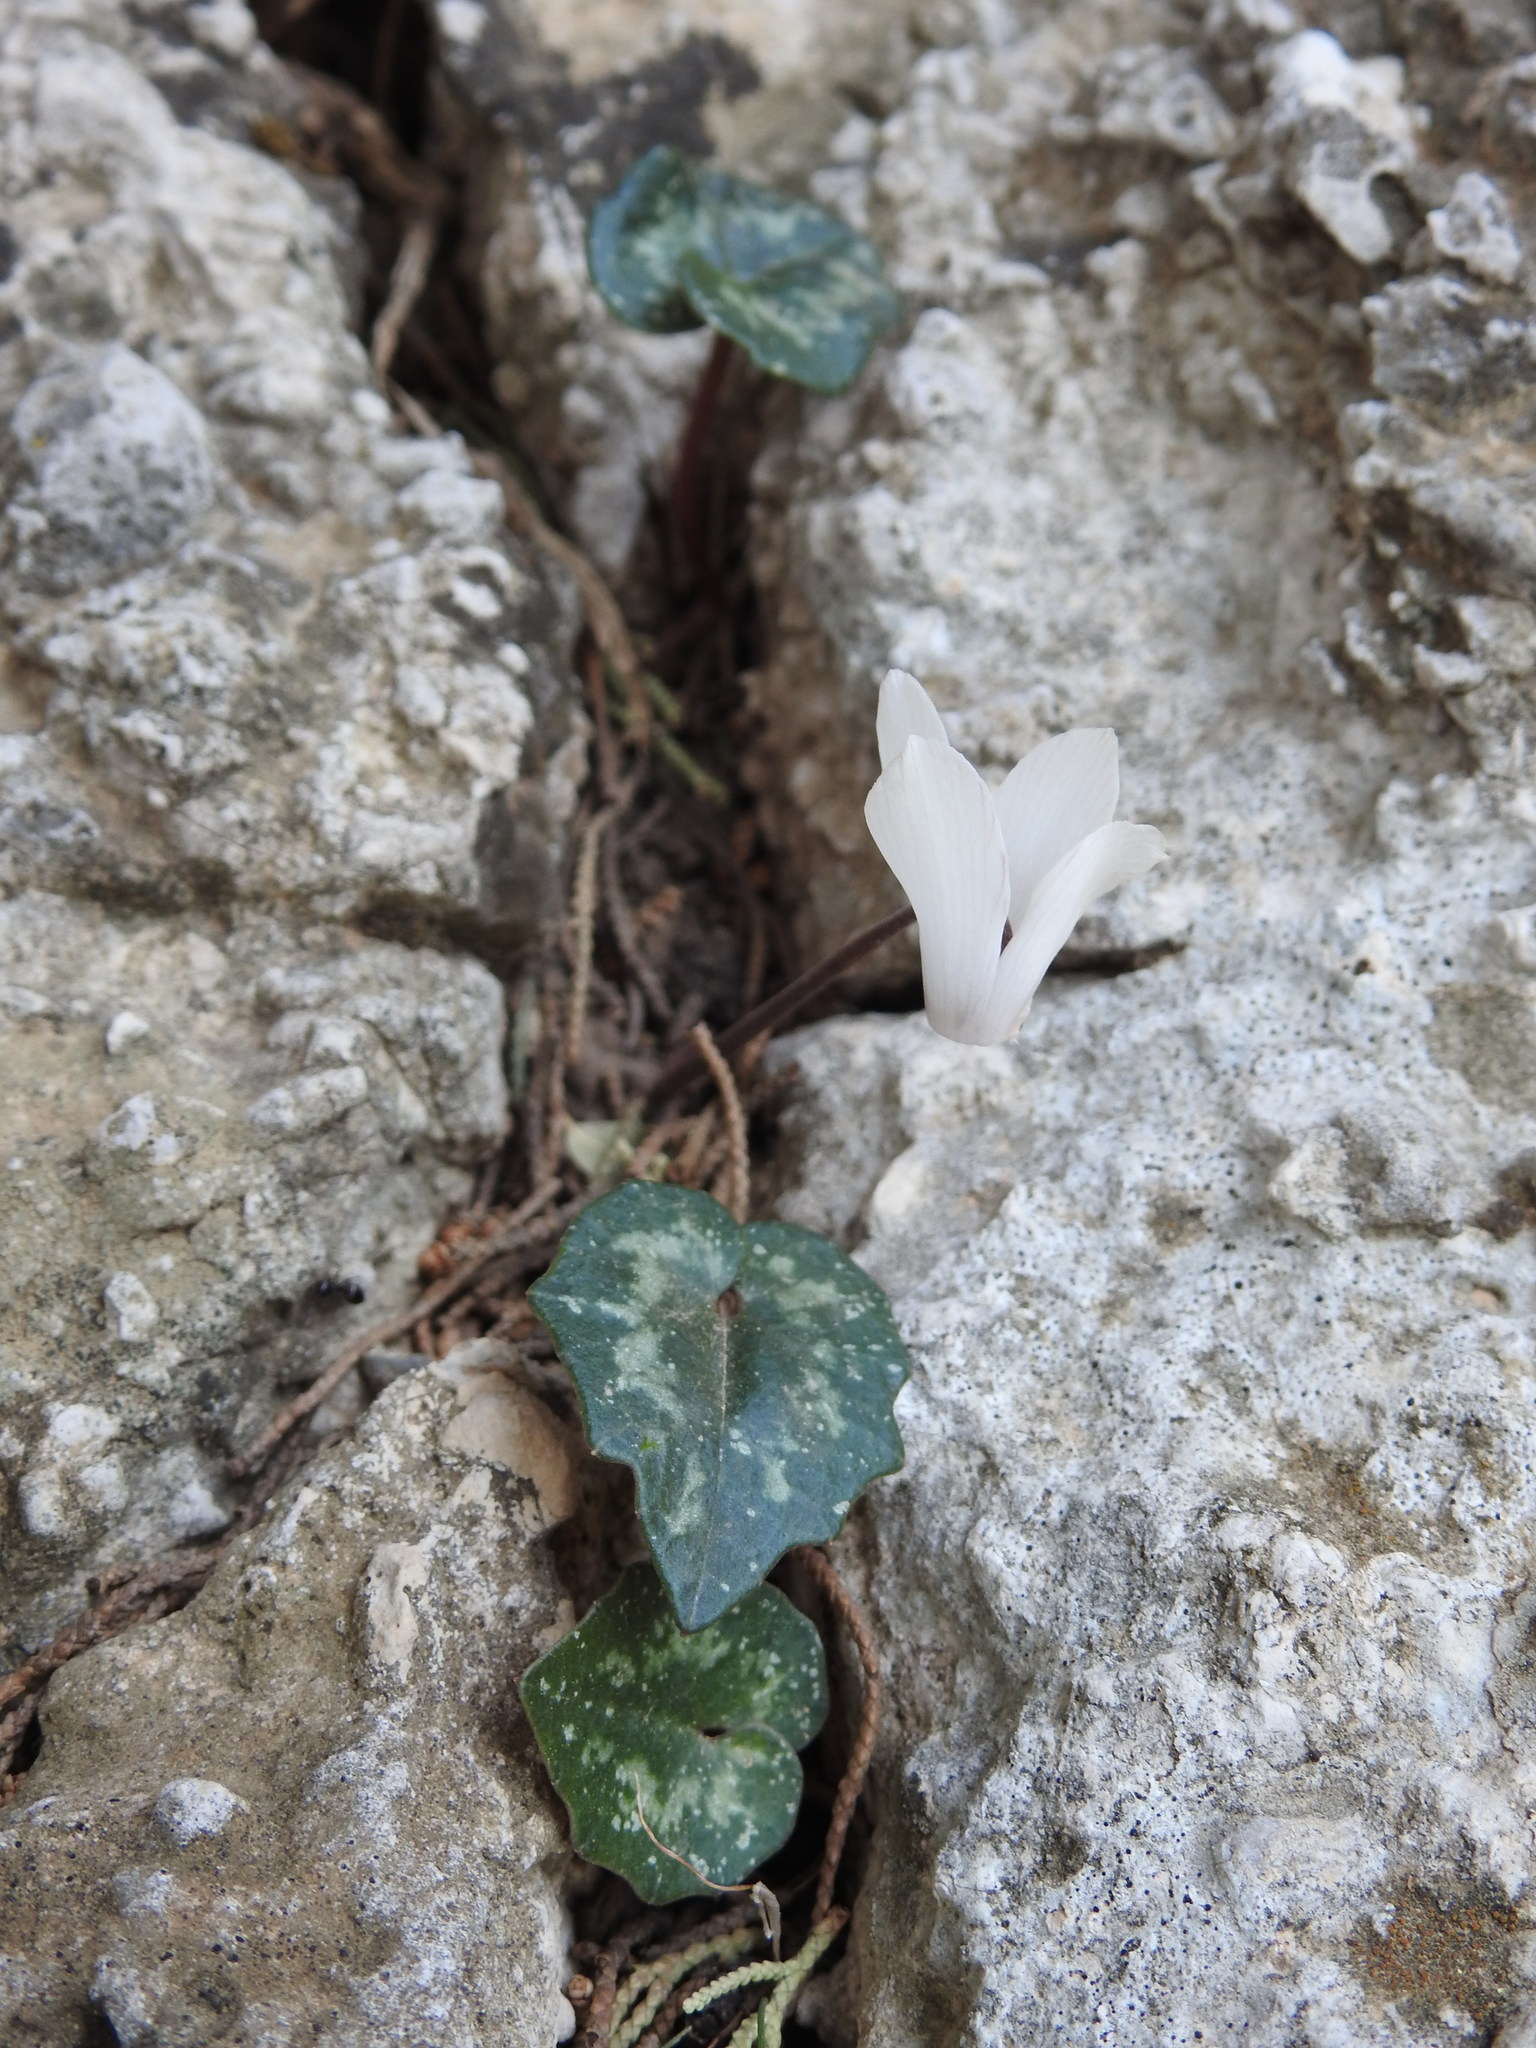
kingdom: Plantae
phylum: Tracheophyta
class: Magnoliopsida
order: Ericales
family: Primulaceae
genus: Cyclamen
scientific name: Cyclamen creticum
